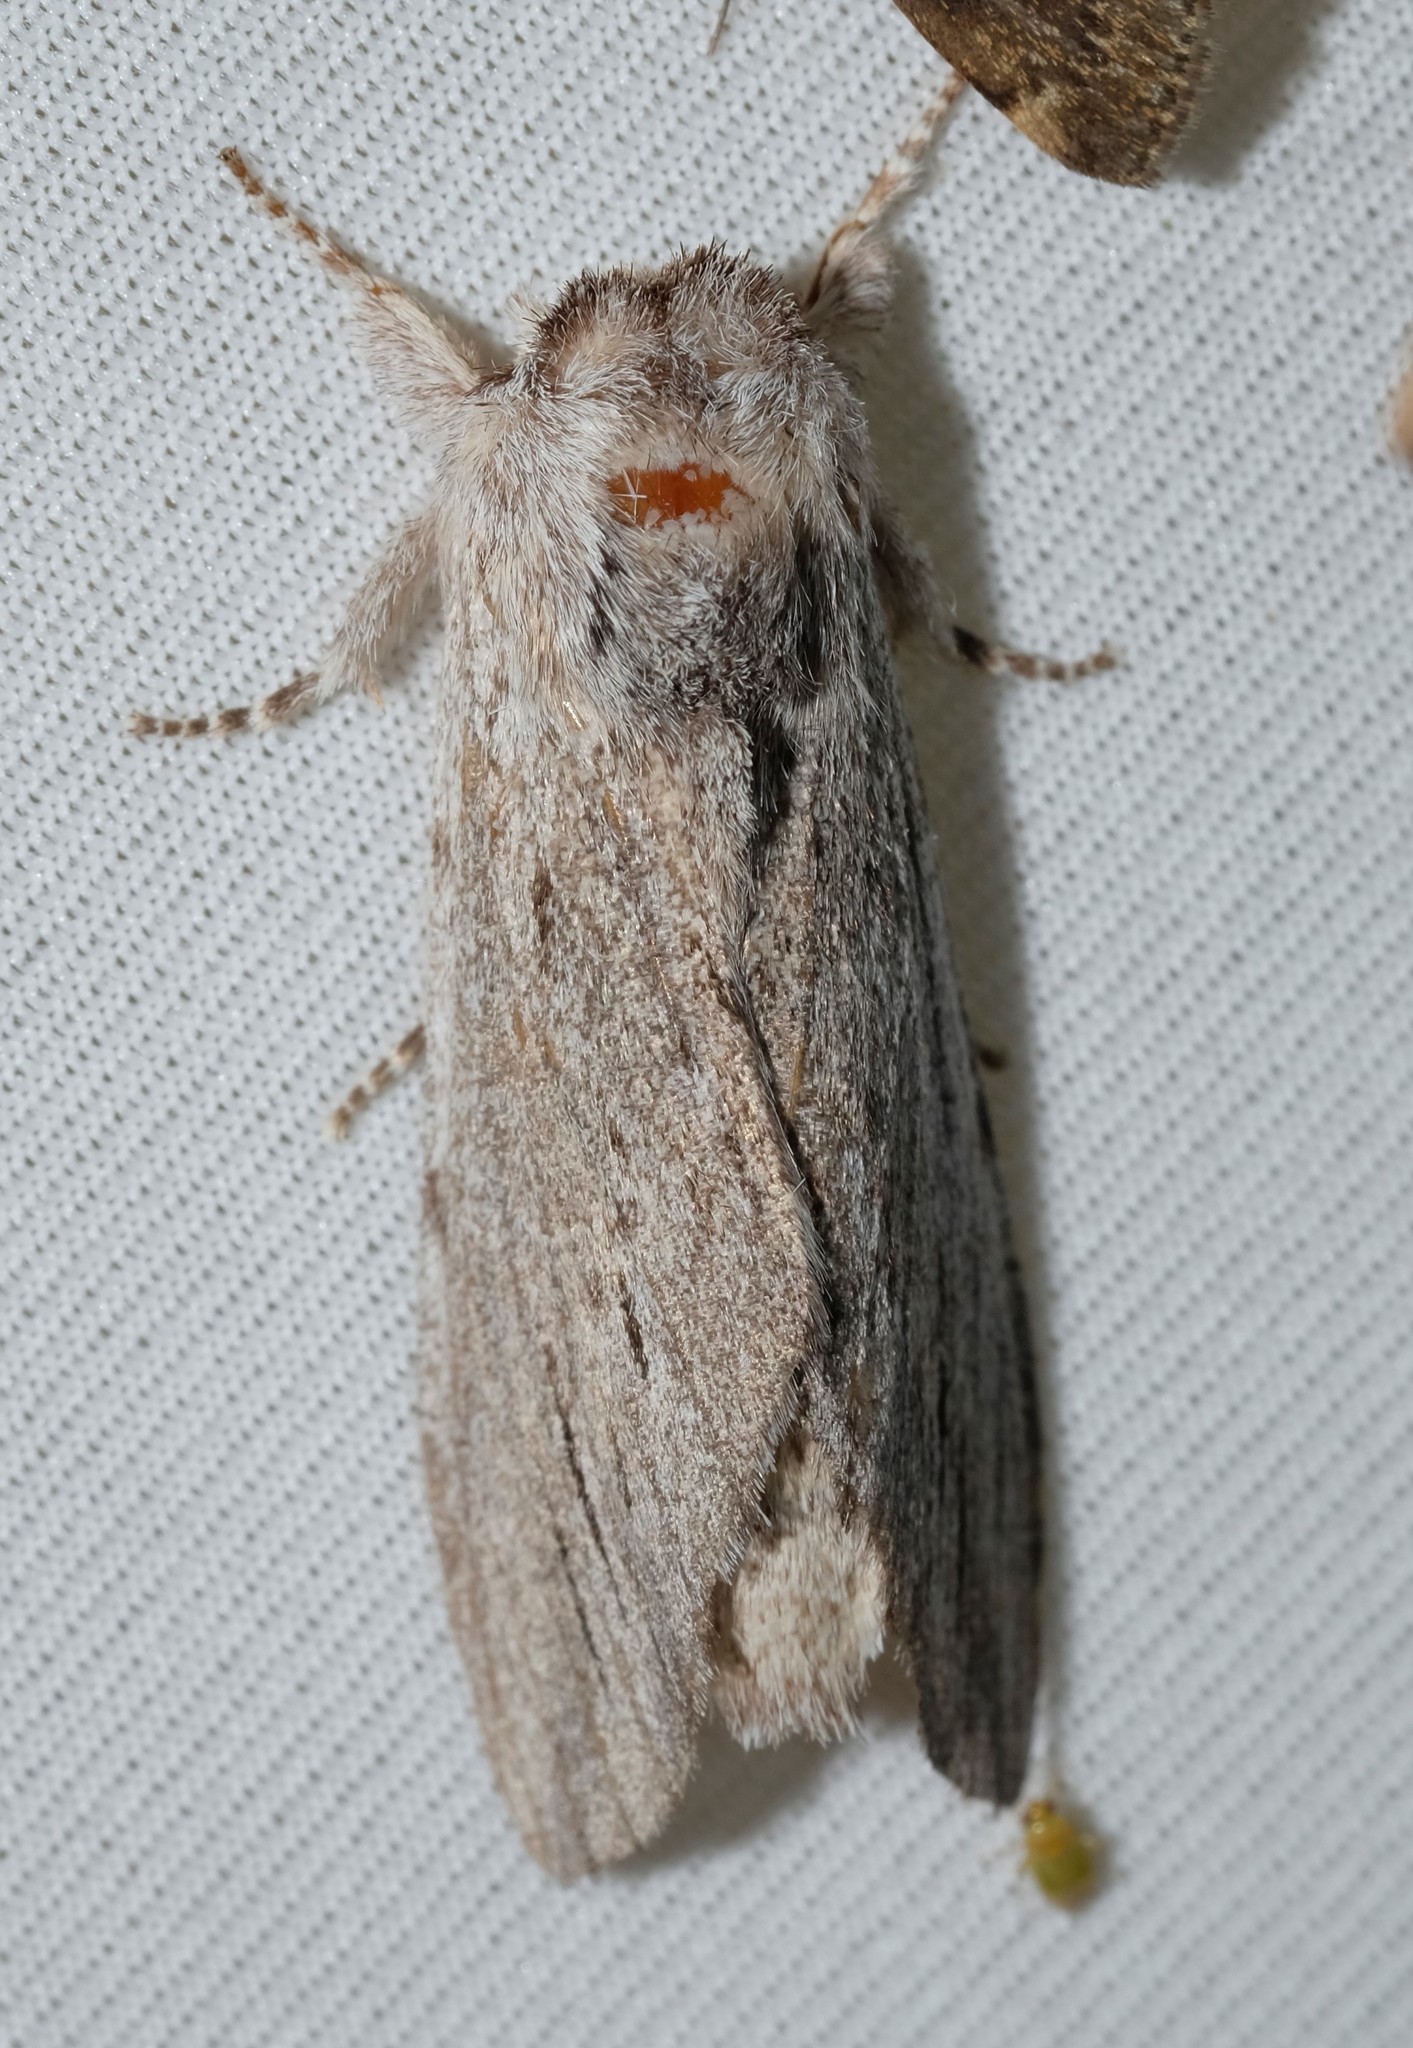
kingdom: Animalia
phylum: Arthropoda
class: Insecta
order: Lepidoptera
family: Notodontidae
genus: Destolmia
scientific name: Destolmia lineata
